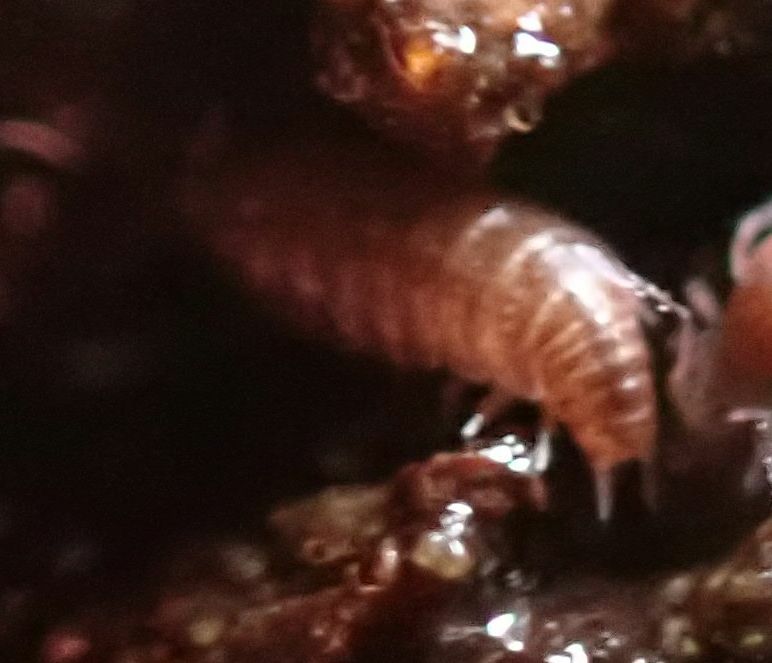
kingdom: Animalia
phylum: Arthropoda
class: Malacostraca
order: Isopoda
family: Trichoniscidae
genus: Trichoniscus
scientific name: Trichoniscus
